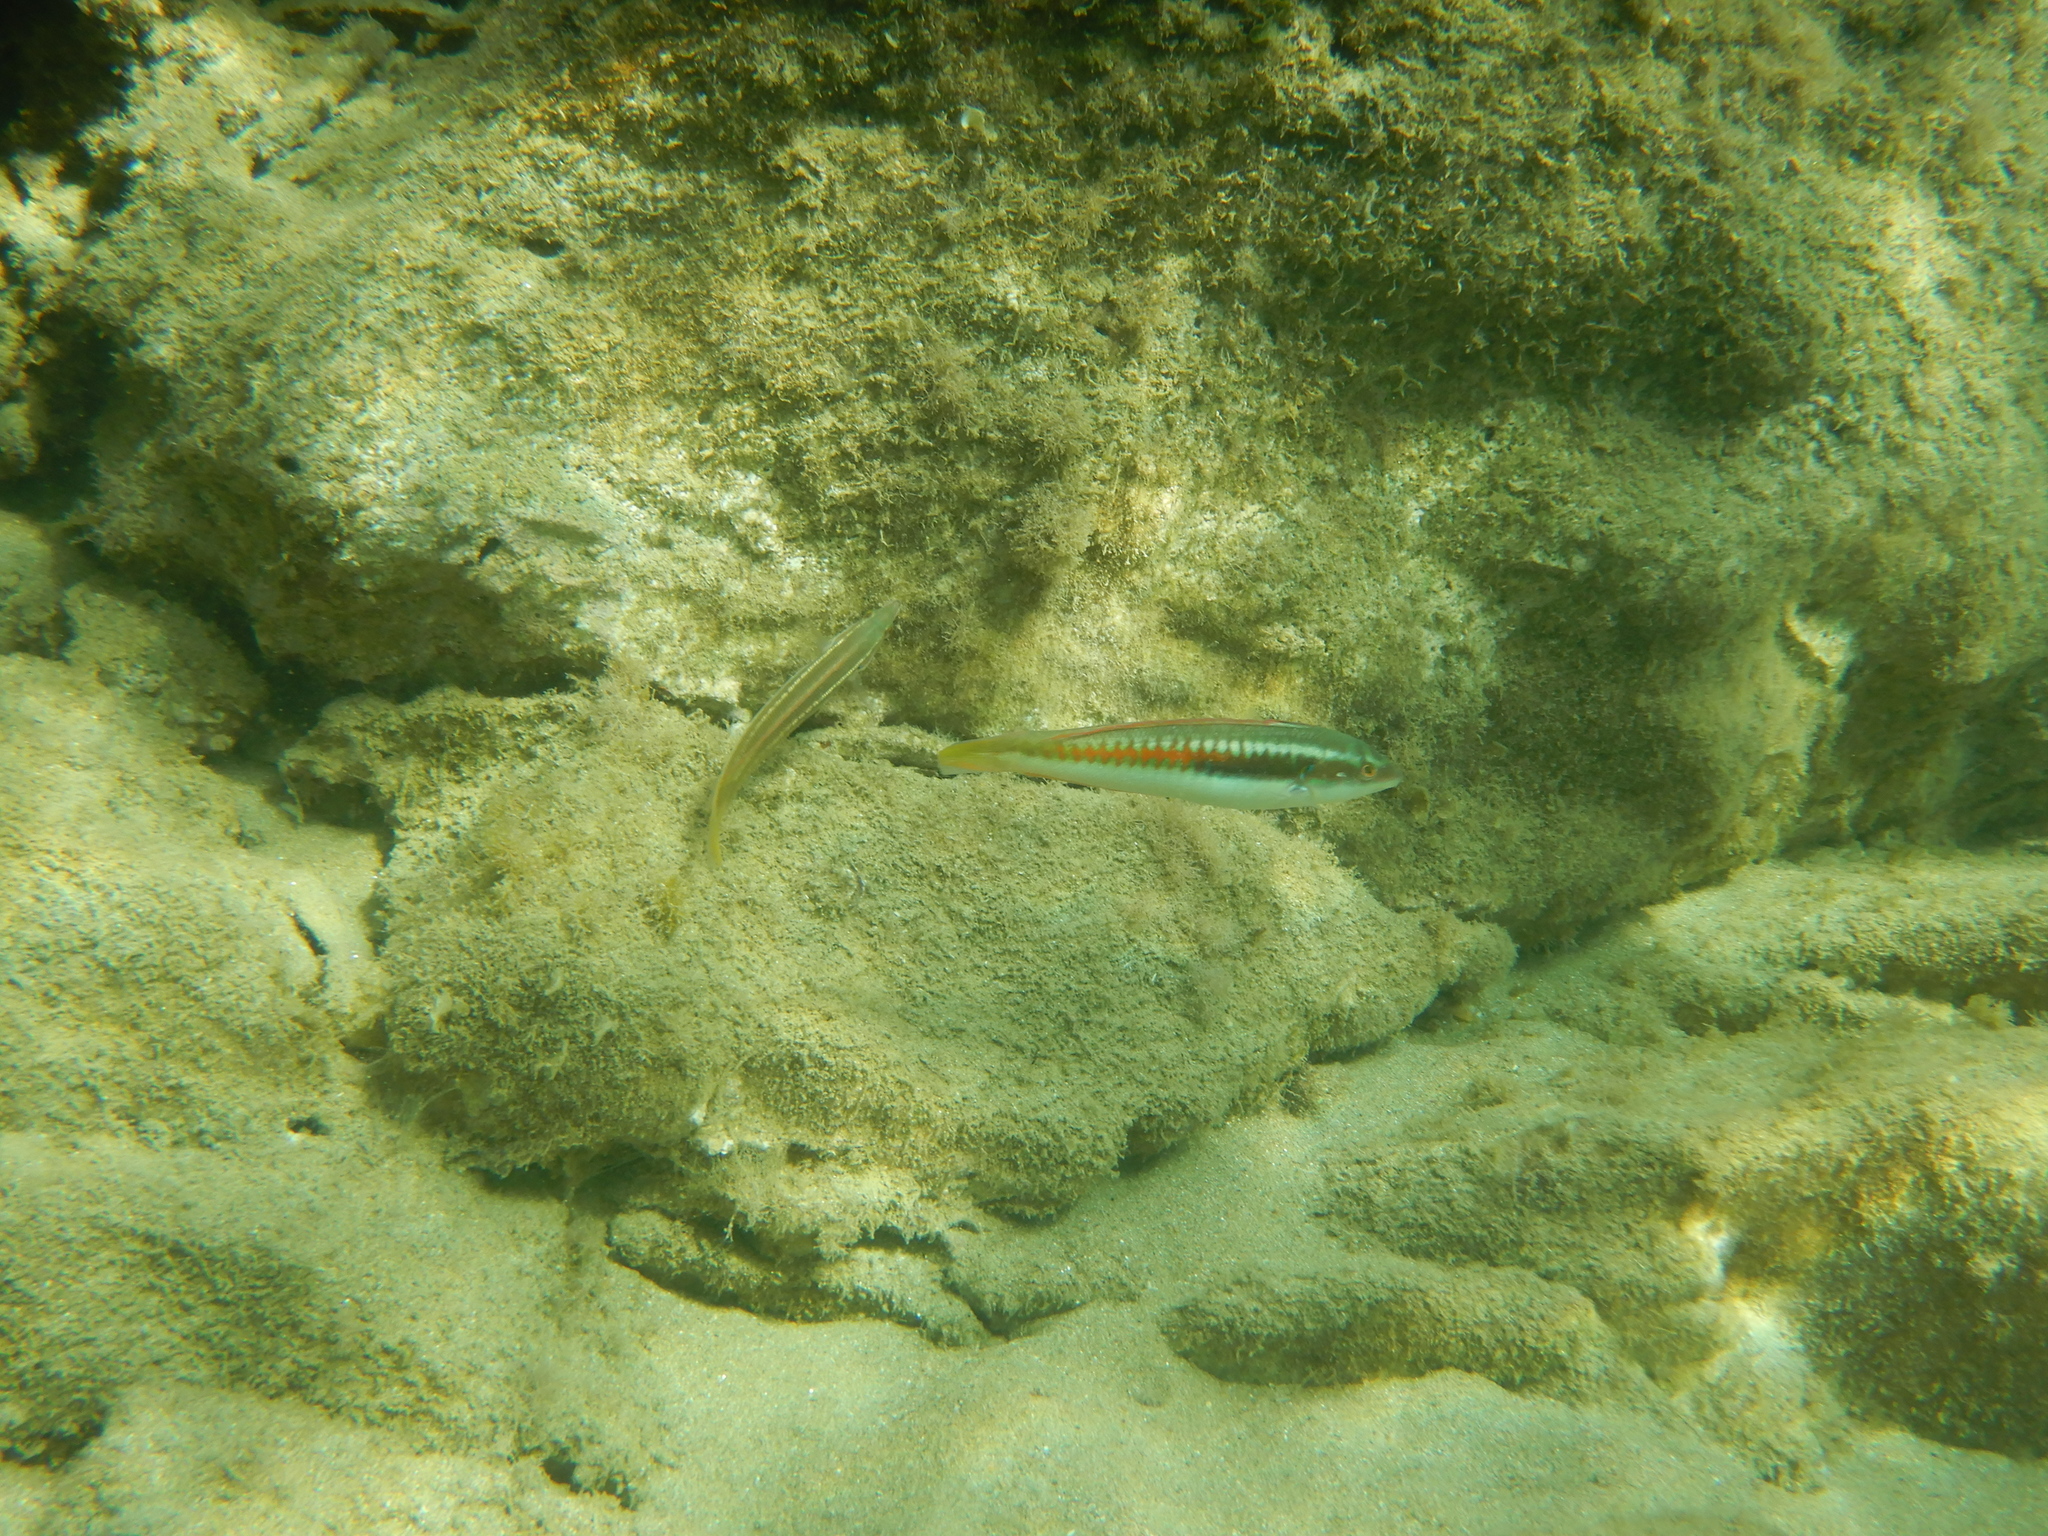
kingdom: Animalia
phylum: Chordata
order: Perciformes
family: Labridae
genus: Coris
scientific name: Coris julis
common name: Rainbow wrasse
